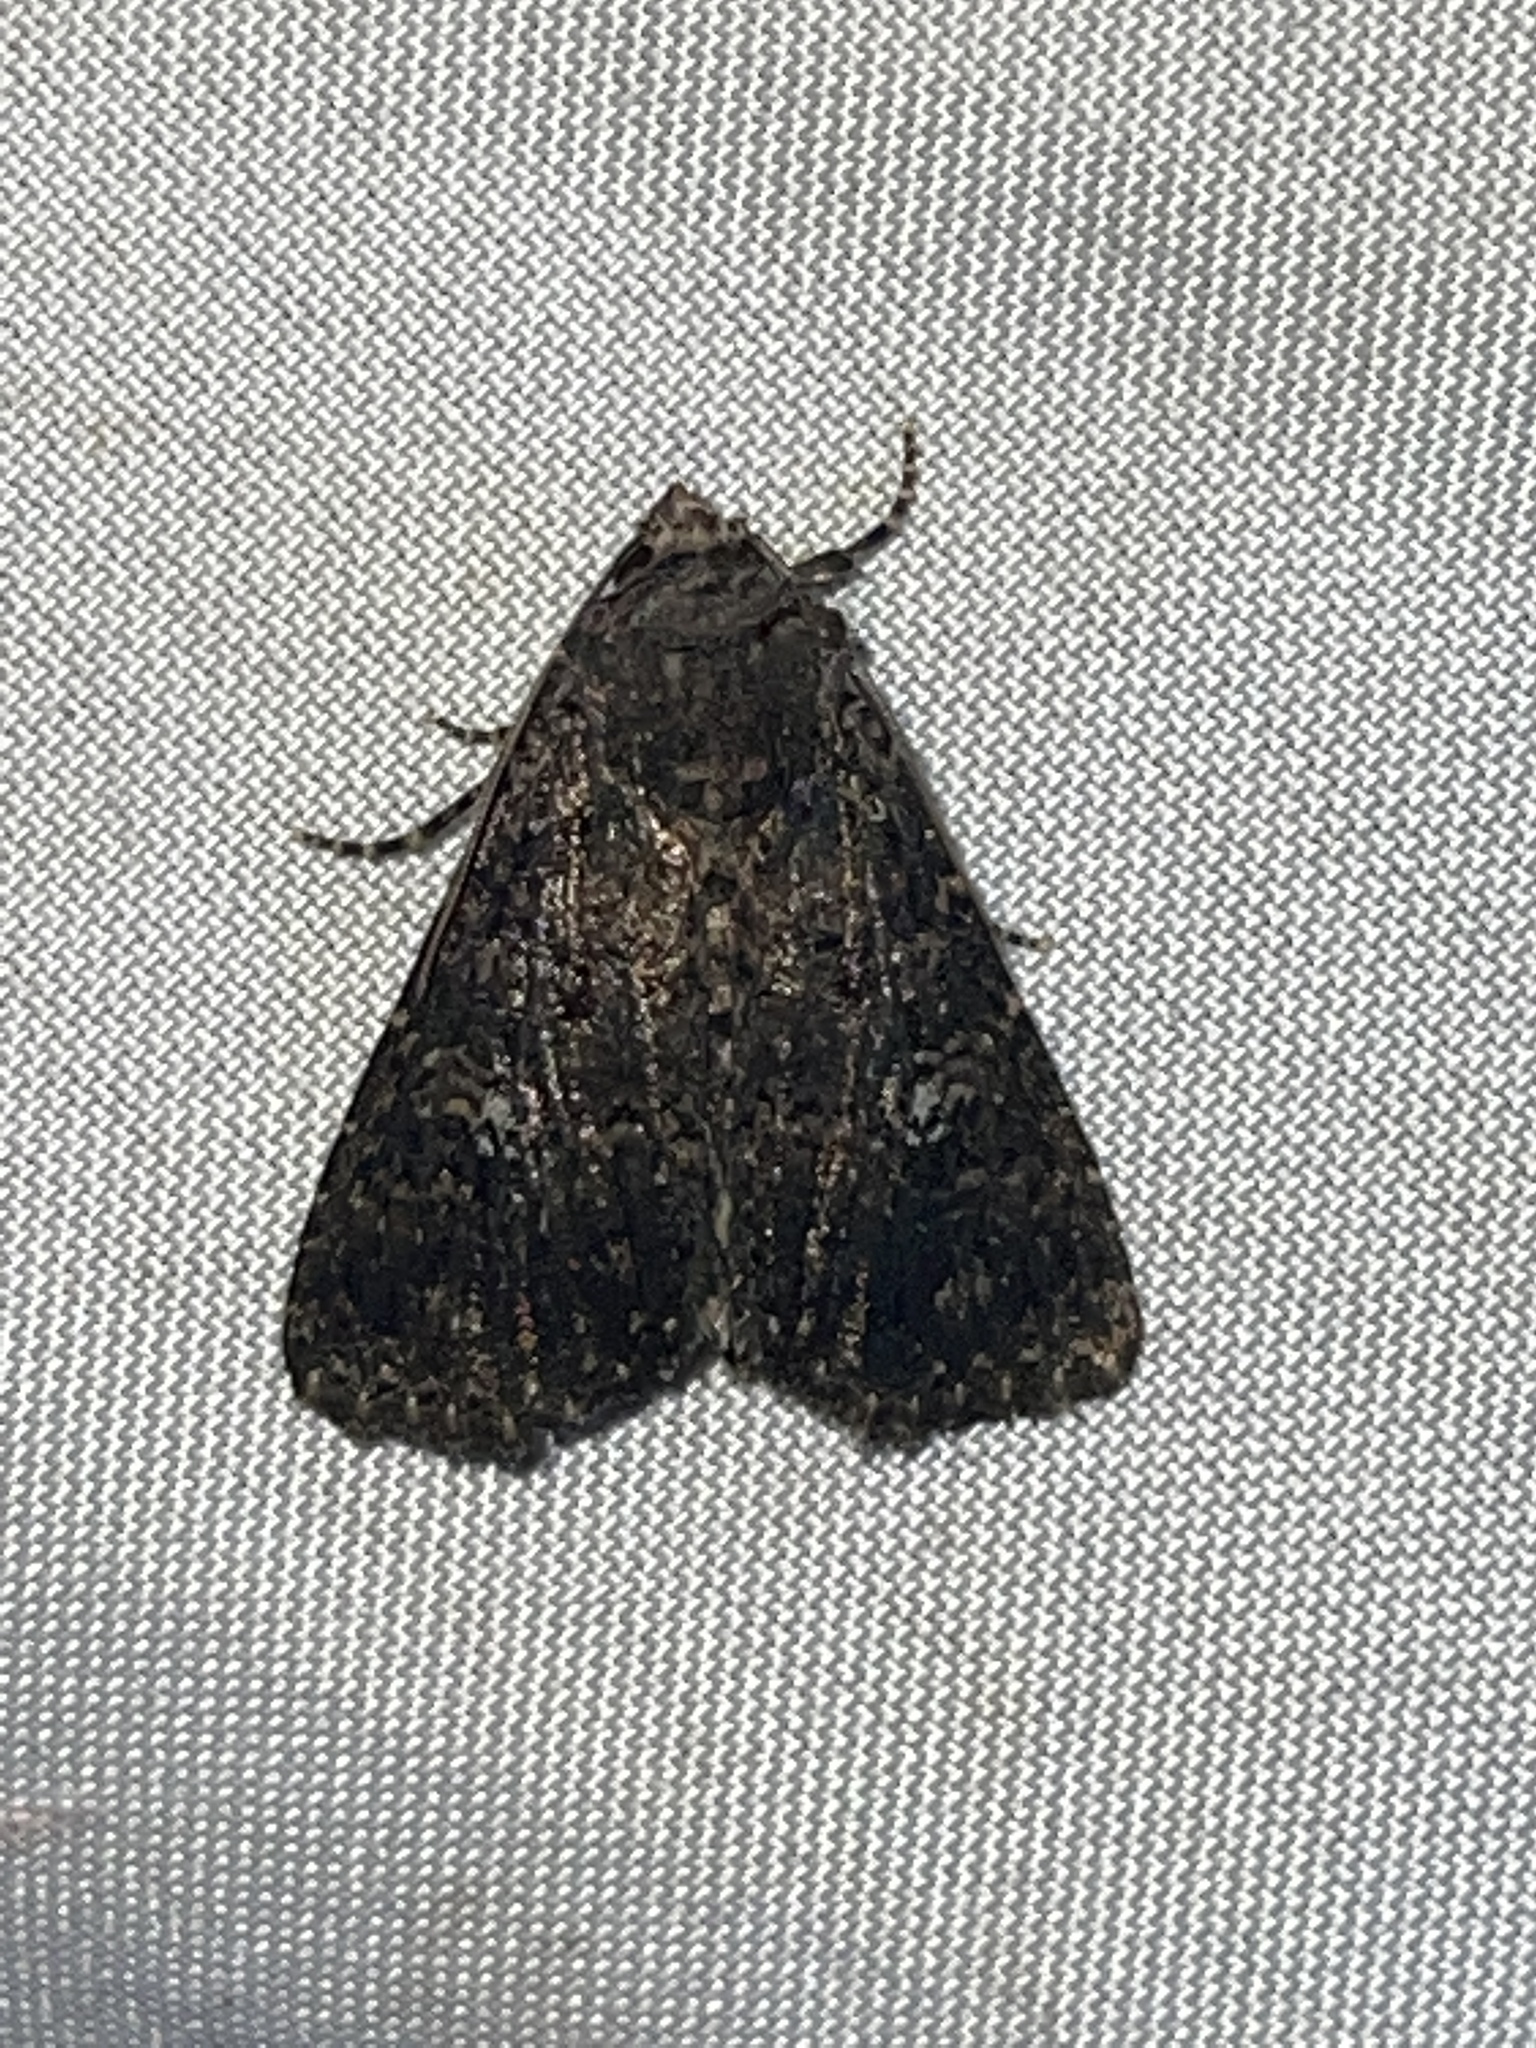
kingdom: Animalia
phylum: Arthropoda
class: Insecta
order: Lepidoptera
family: Noctuidae
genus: Condica
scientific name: Condica vecors
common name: Dusky groundling
